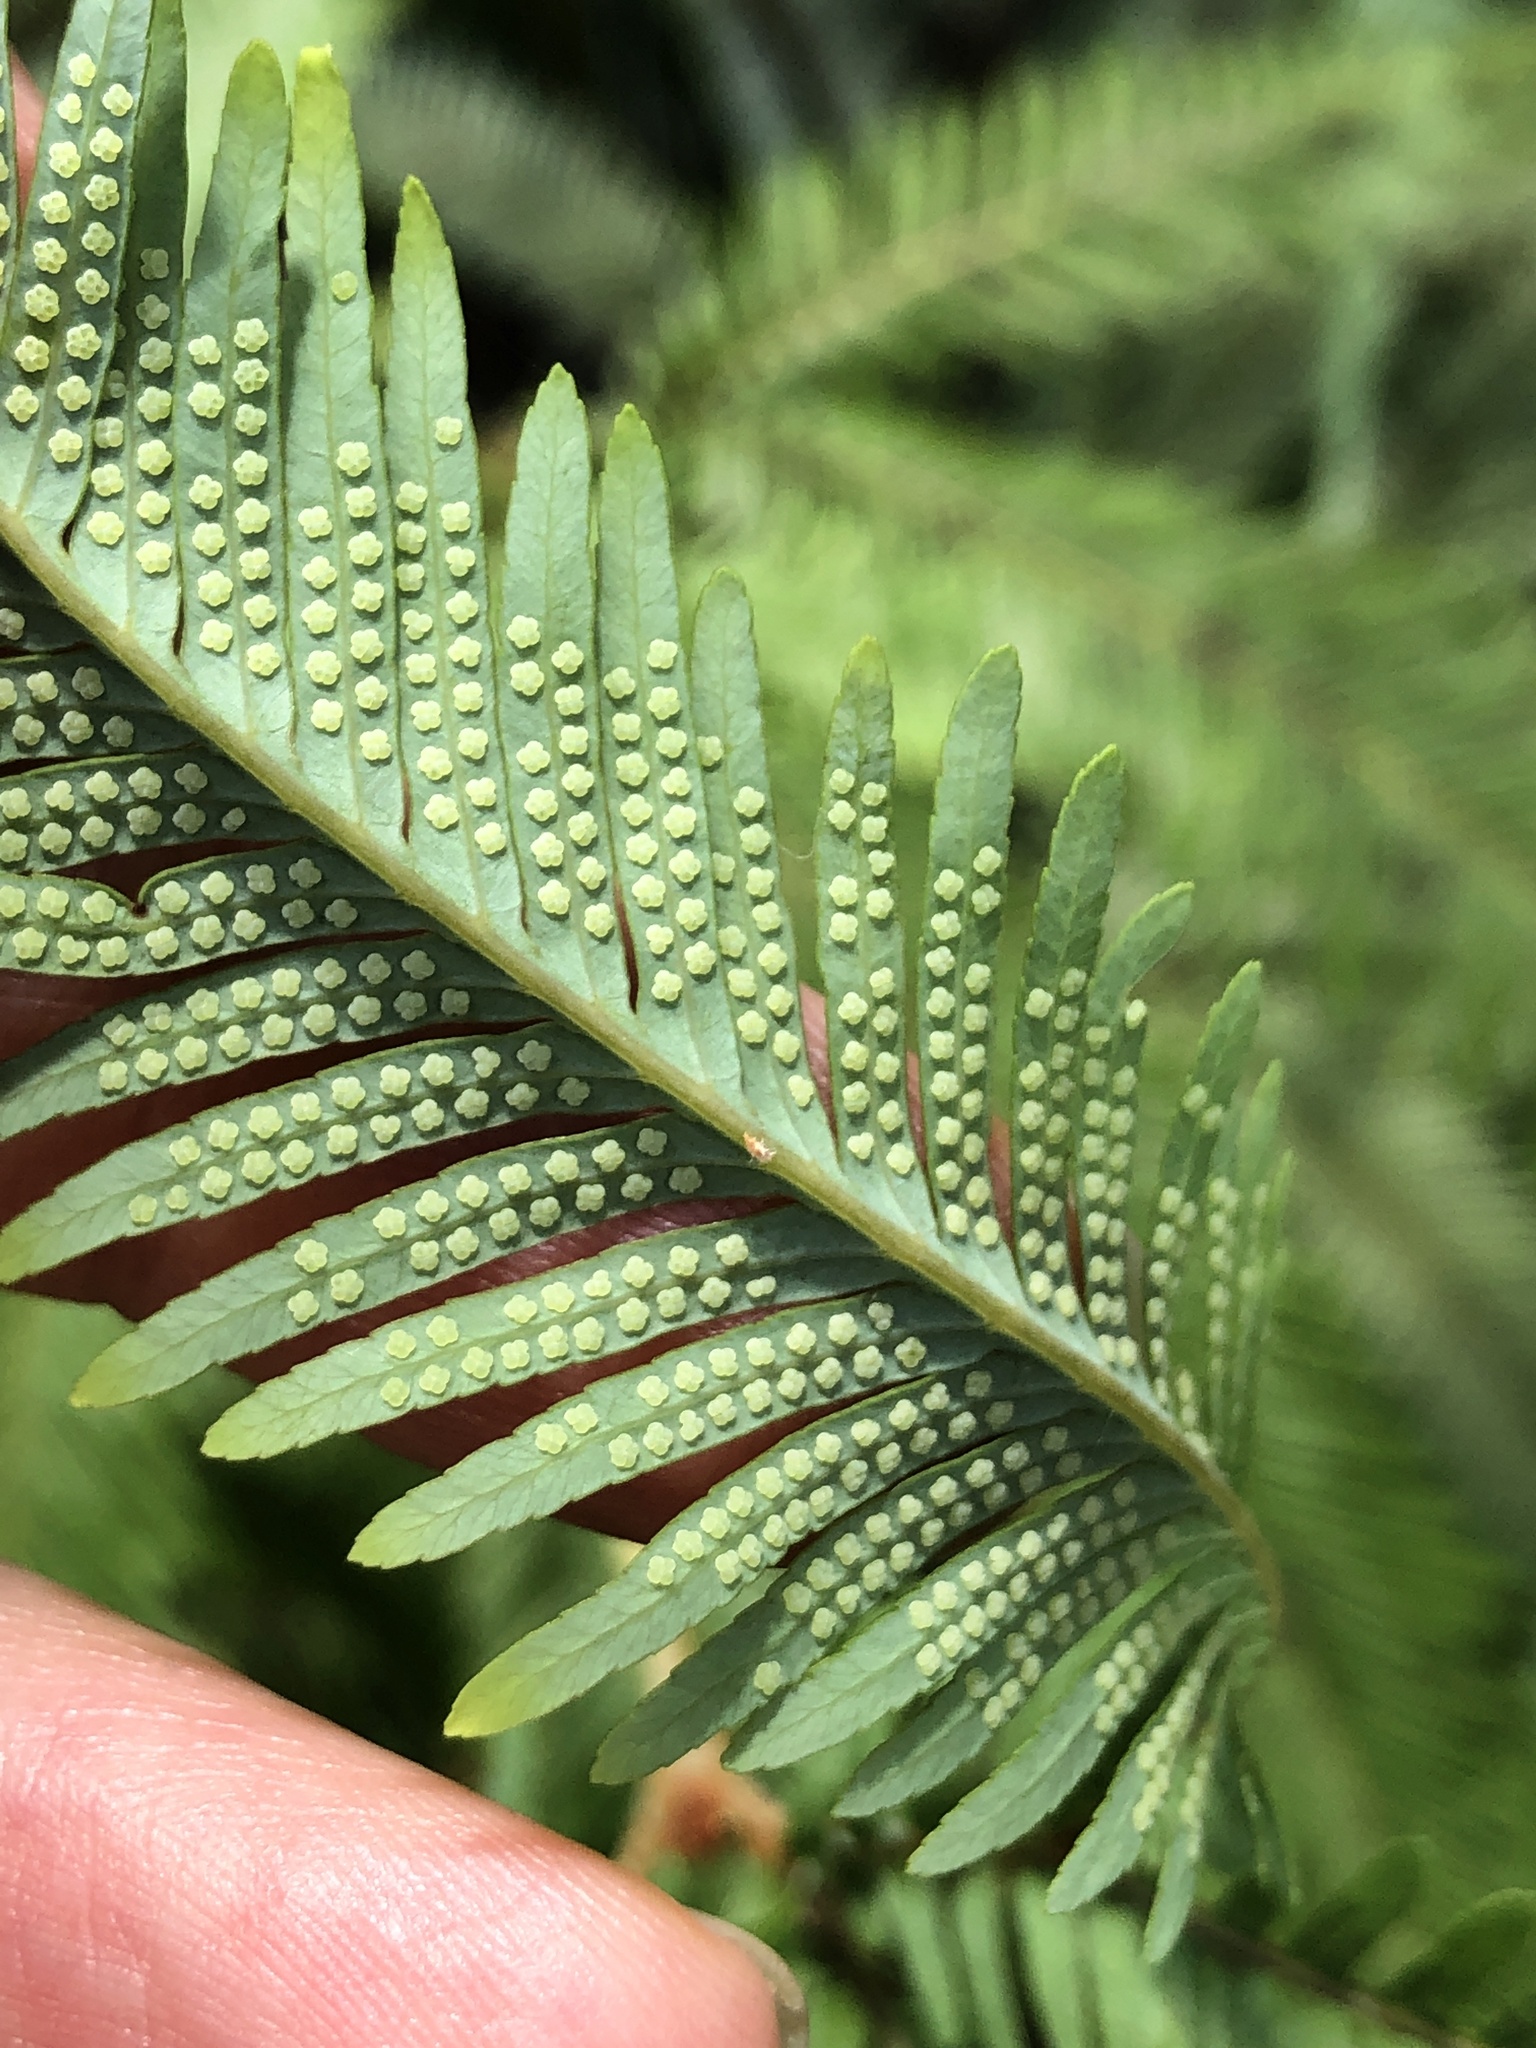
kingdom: Plantae
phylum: Tracheophyta
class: Polypodiopsida
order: Gleicheniales
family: Gleicheniaceae
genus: Sticherus
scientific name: Sticherus flabellatus
